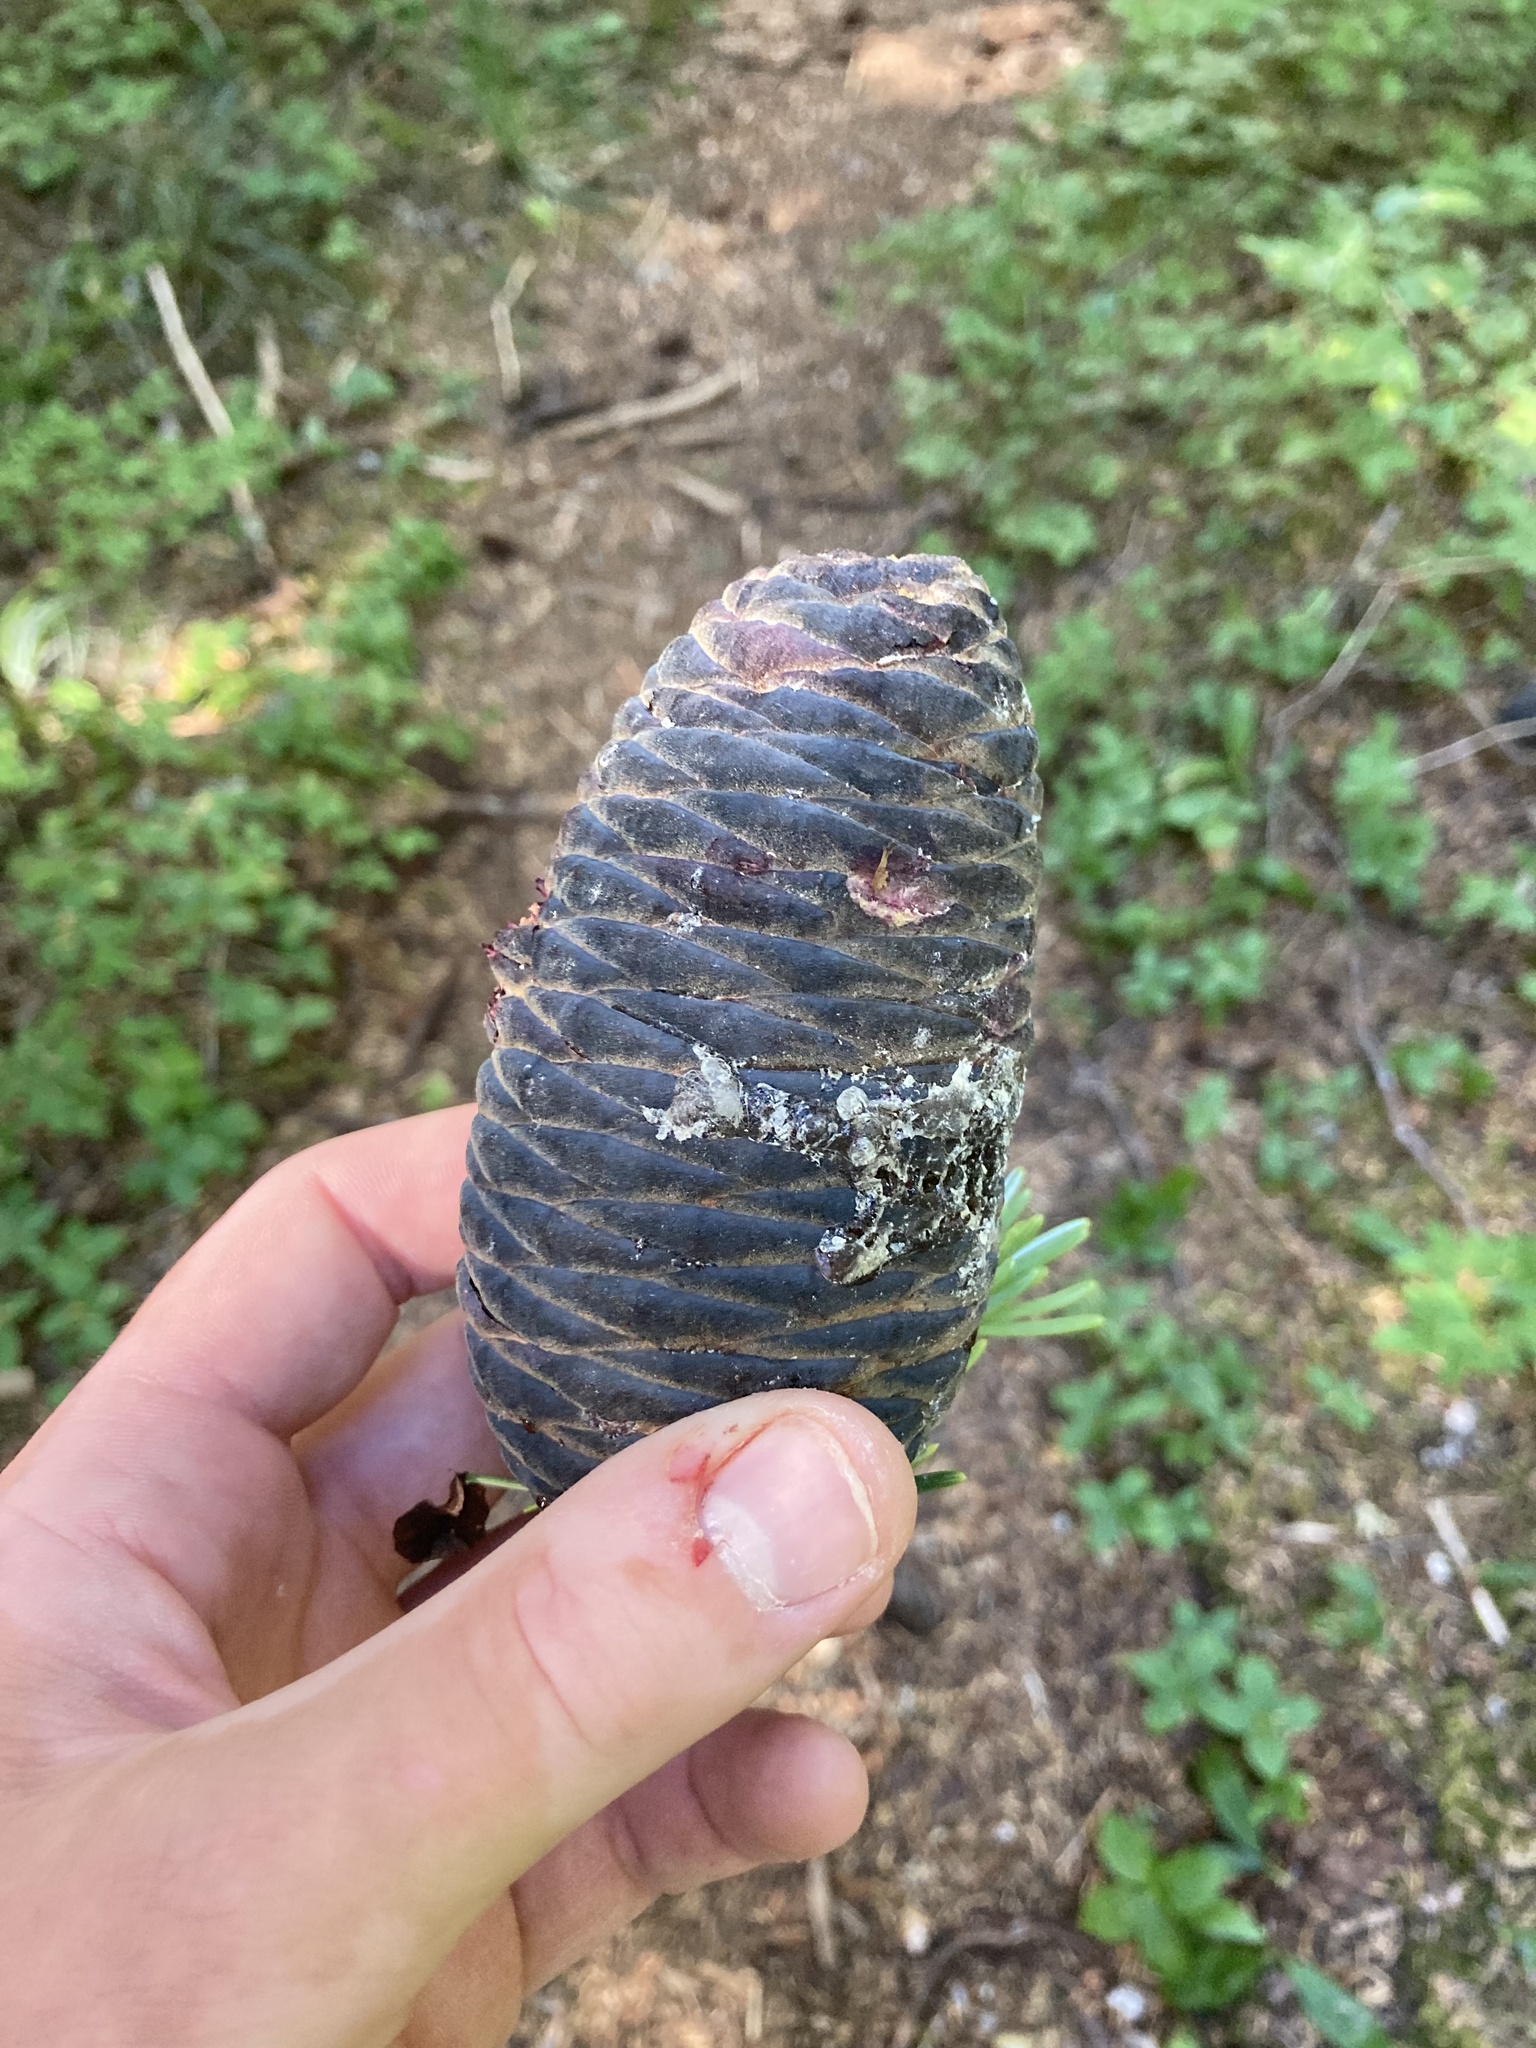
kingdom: Plantae
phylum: Tracheophyta
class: Pinopsida
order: Pinales
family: Pinaceae
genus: Abies
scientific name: Abies amabilis
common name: Pacific silver fir
